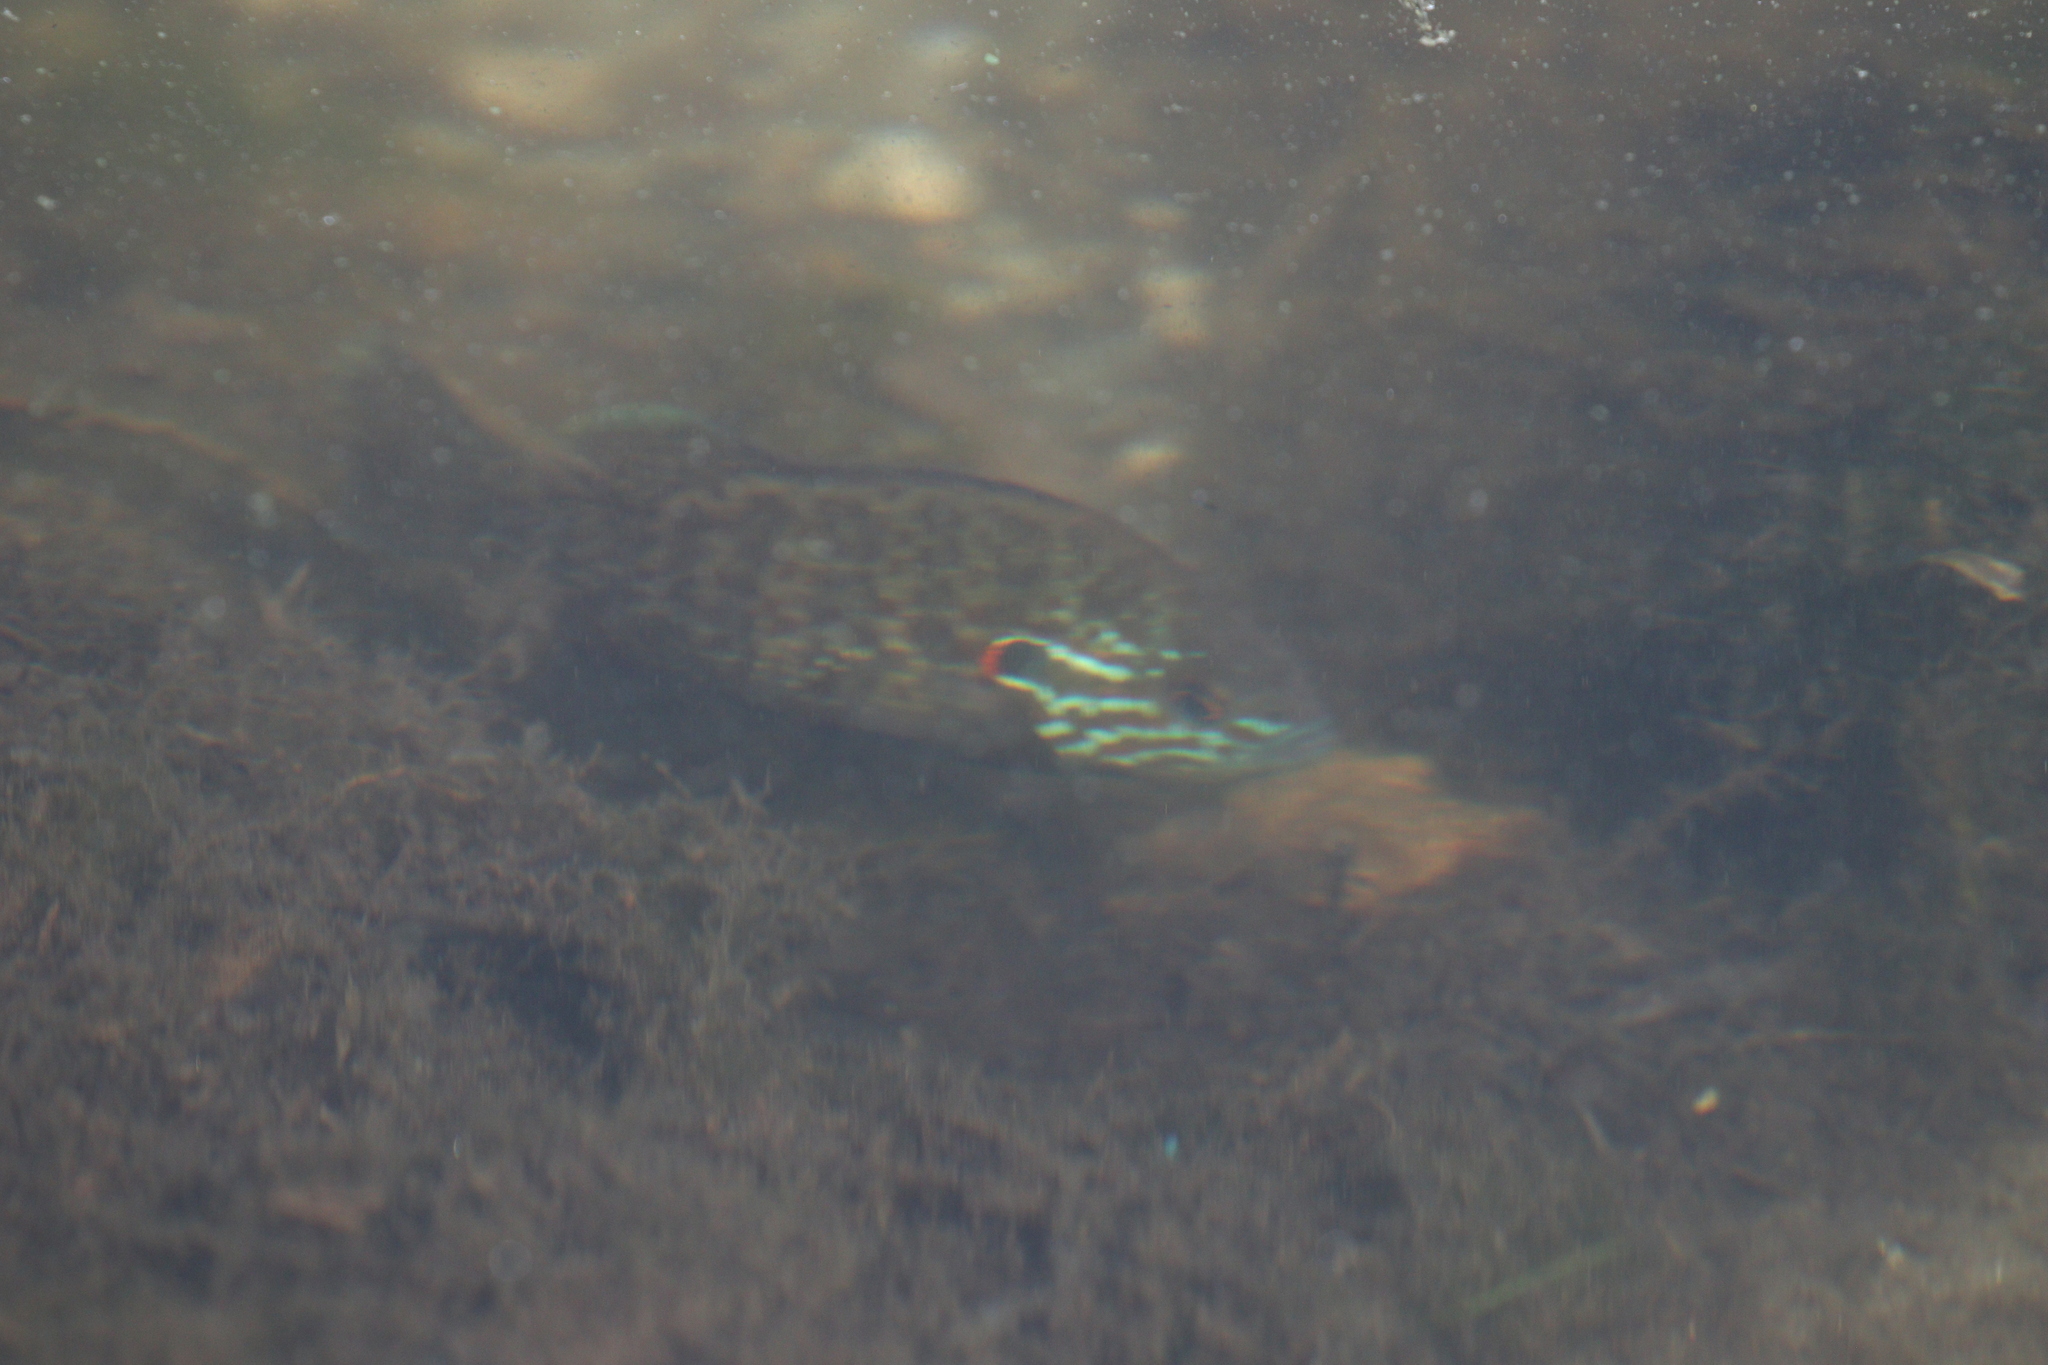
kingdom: Animalia
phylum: Chordata
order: Perciformes
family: Centrarchidae
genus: Lepomis
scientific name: Lepomis gibbosus
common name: Pumpkinseed
